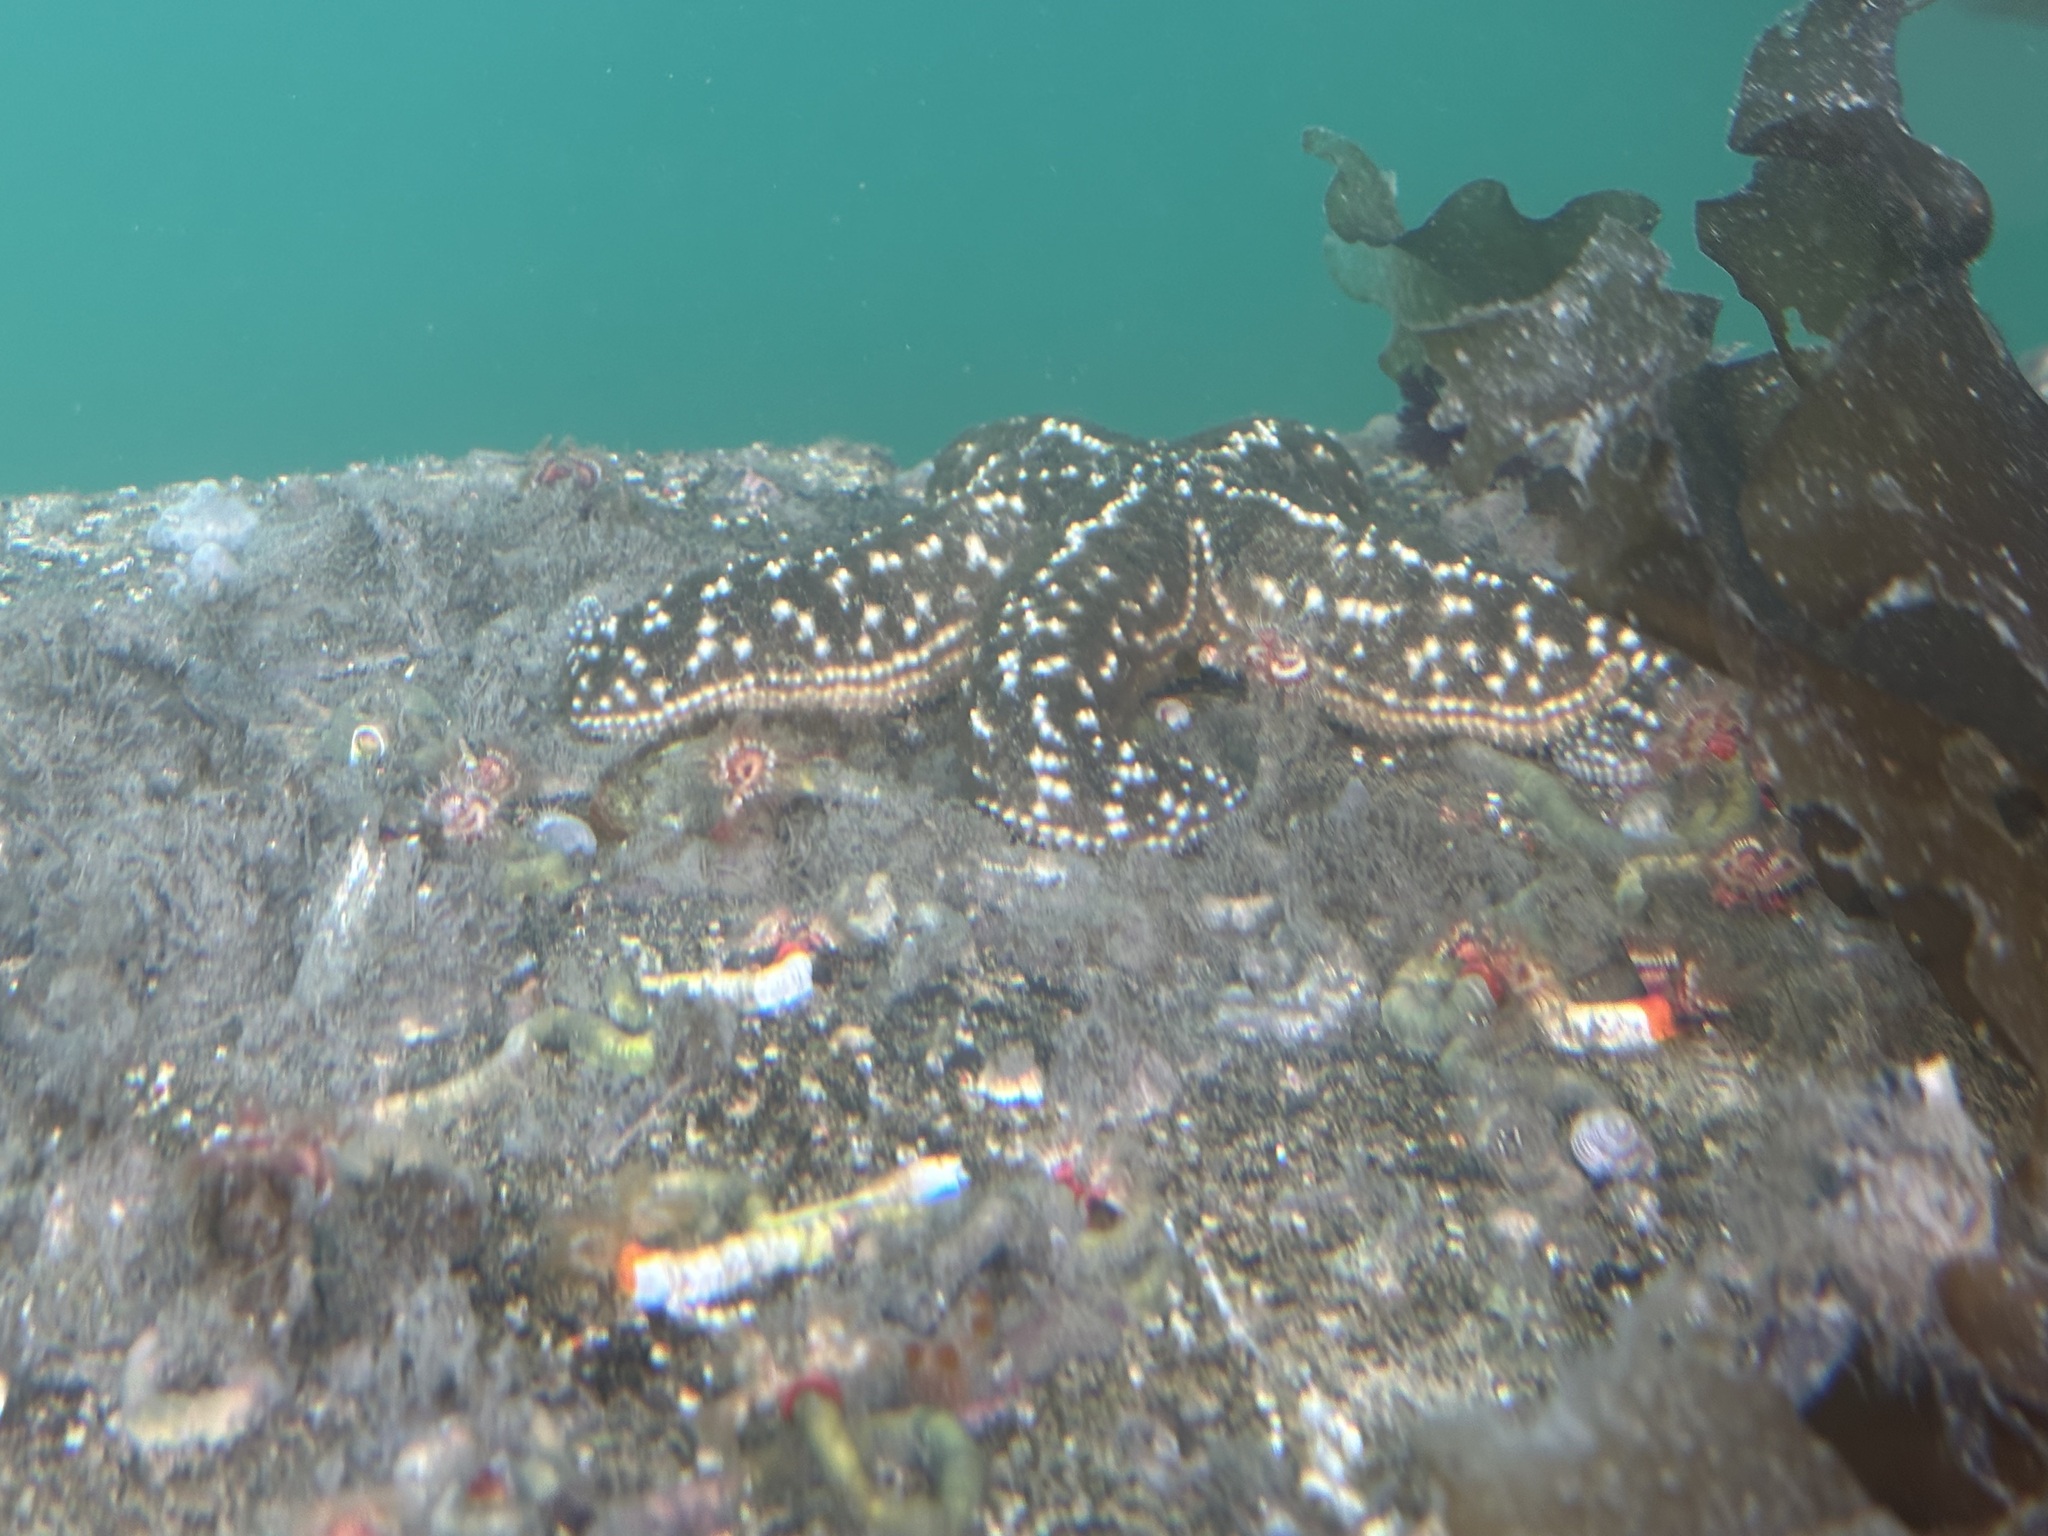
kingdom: Animalia
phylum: Echinodermata
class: Asteroidea
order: Forcipulatida
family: Asteriidae
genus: Evasterias
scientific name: Evasterias troschelii
